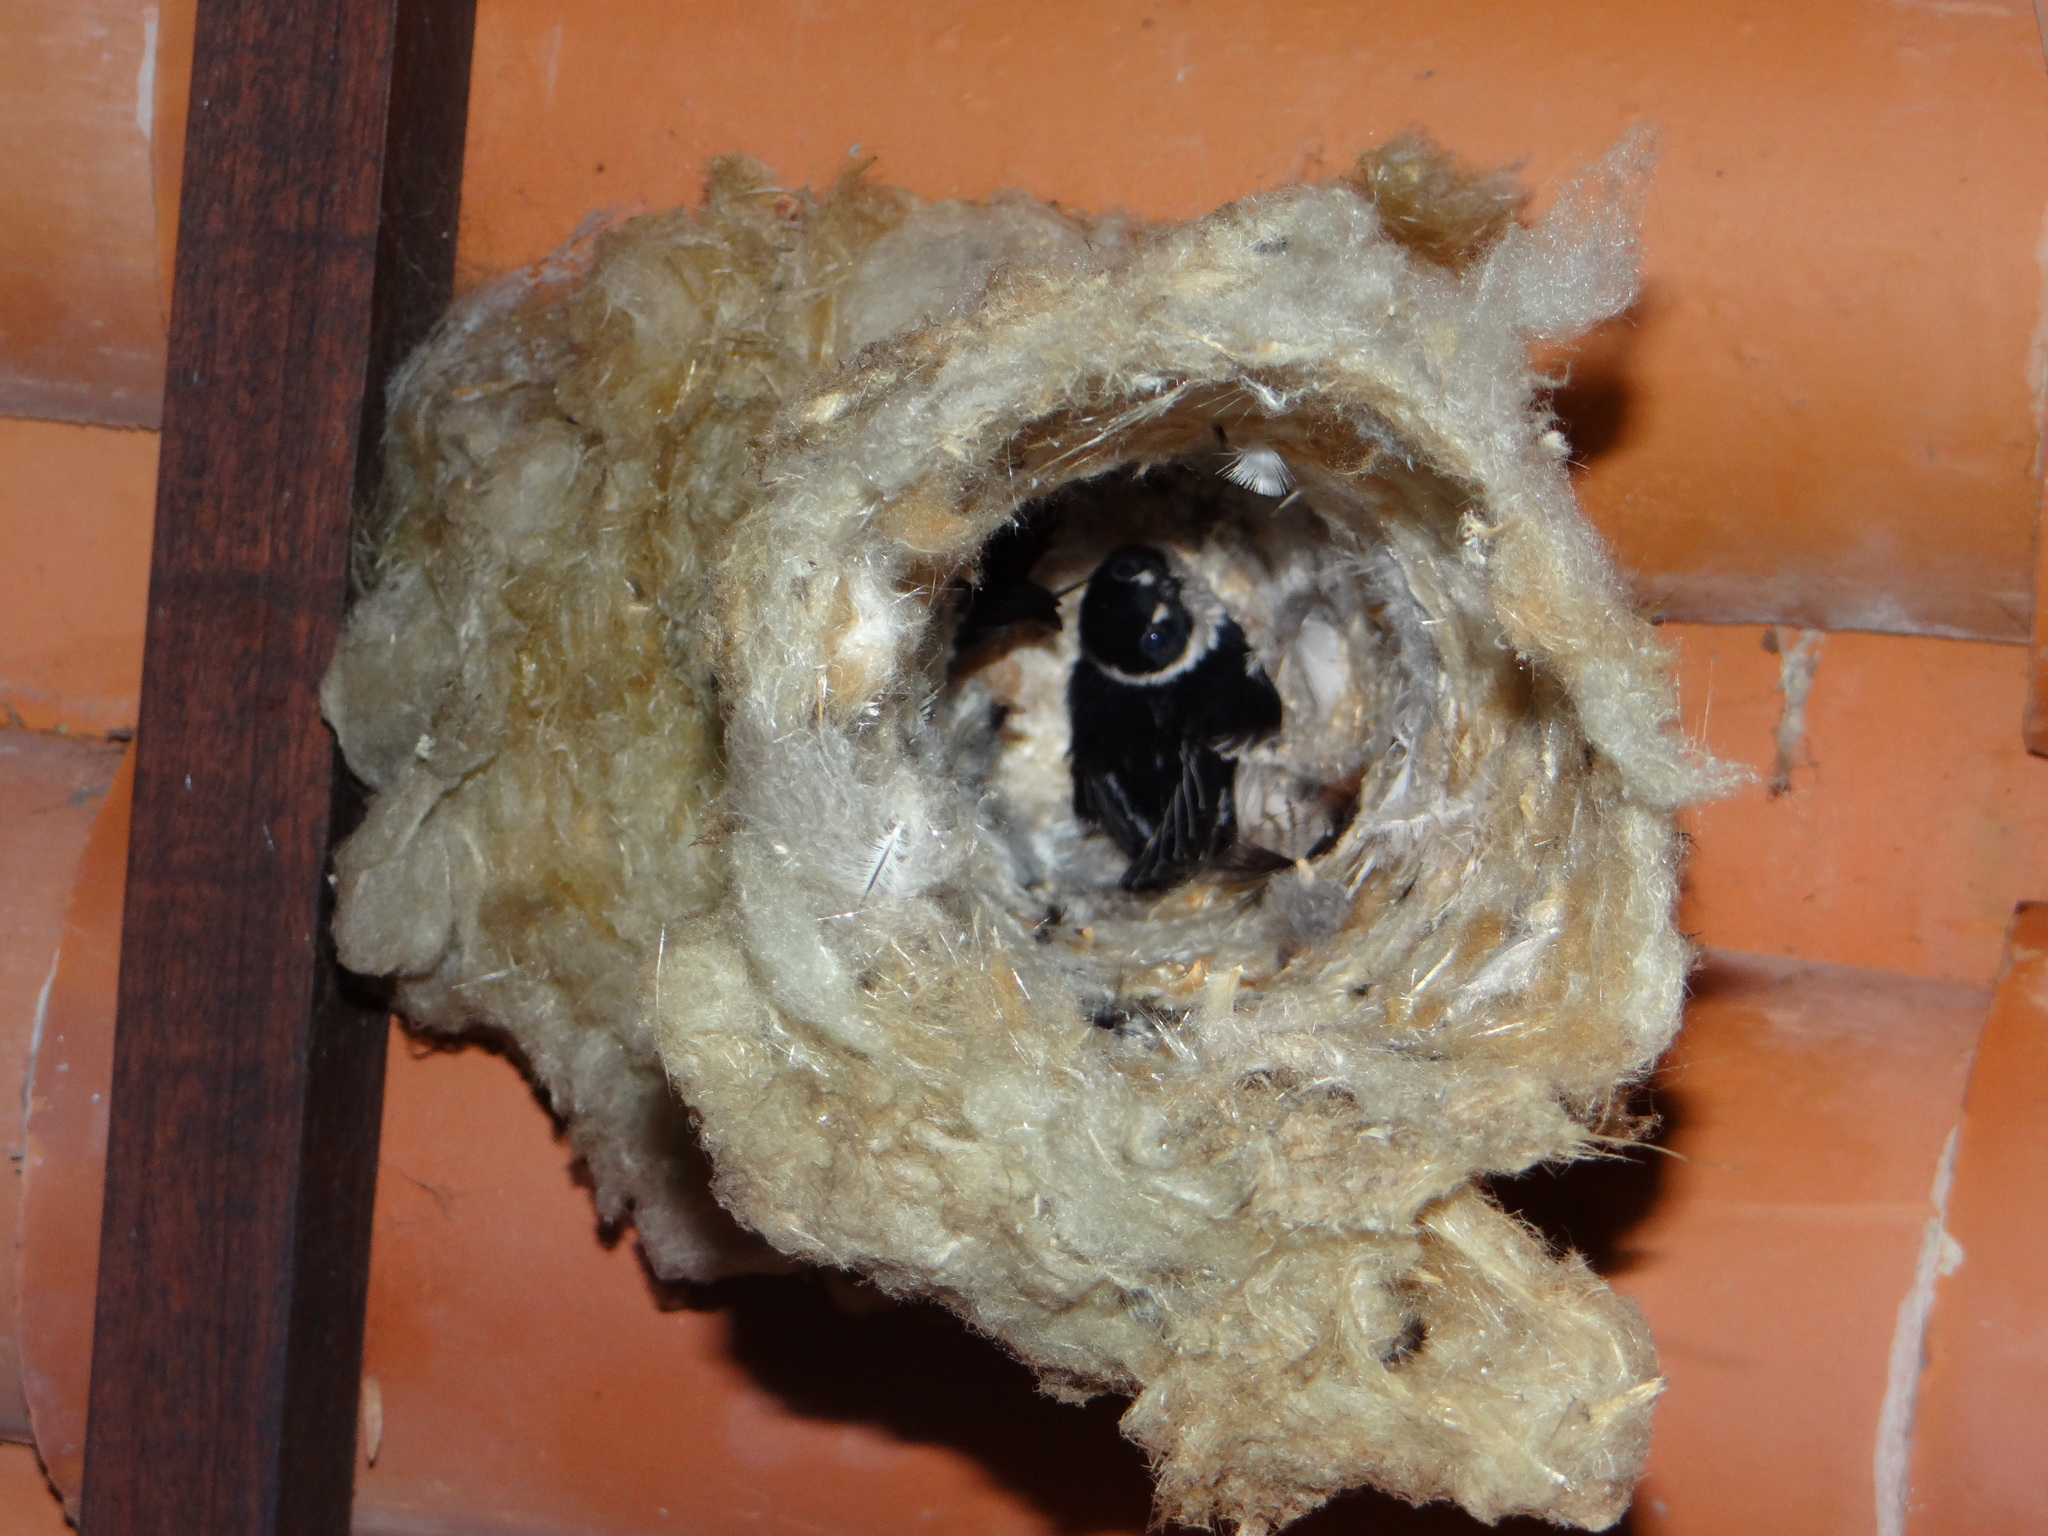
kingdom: Animalia
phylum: Chordata
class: Aves
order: Apodiformes
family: Apodidae
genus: Panyptila
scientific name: Panyptila cayennensis
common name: Lesser swallow-tailed swift
